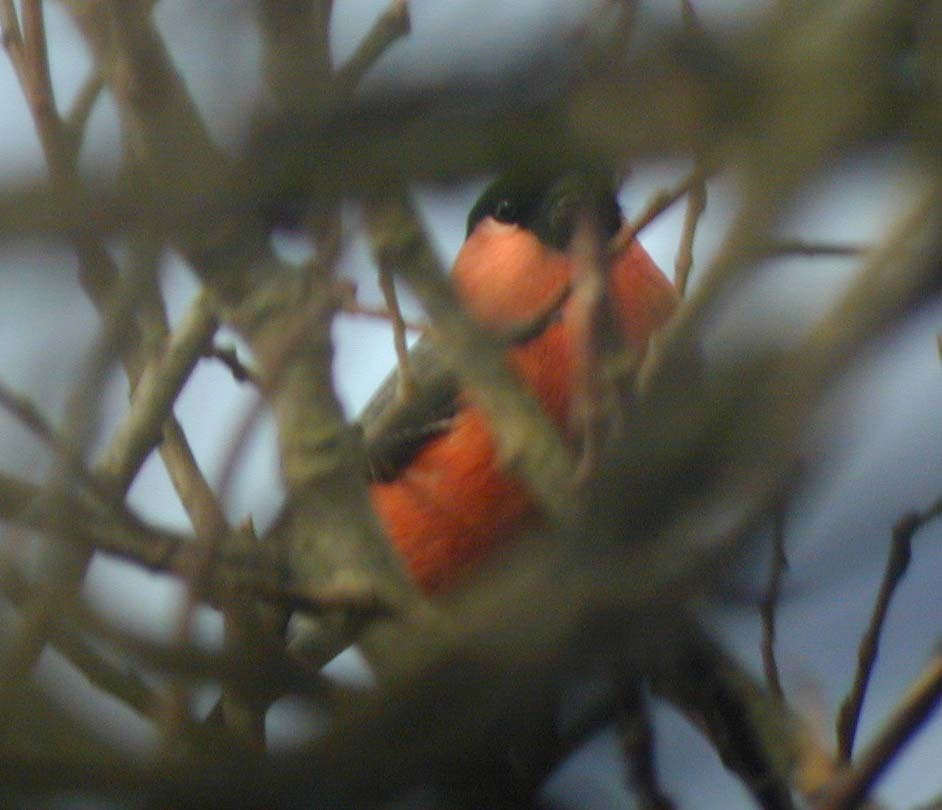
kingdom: Animalia
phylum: Chordata
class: Aves
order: Passeriformes
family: Fringillidae
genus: Pyrrhula
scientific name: Pyrrhula pyrrhula
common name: Eurasian bullfinch
